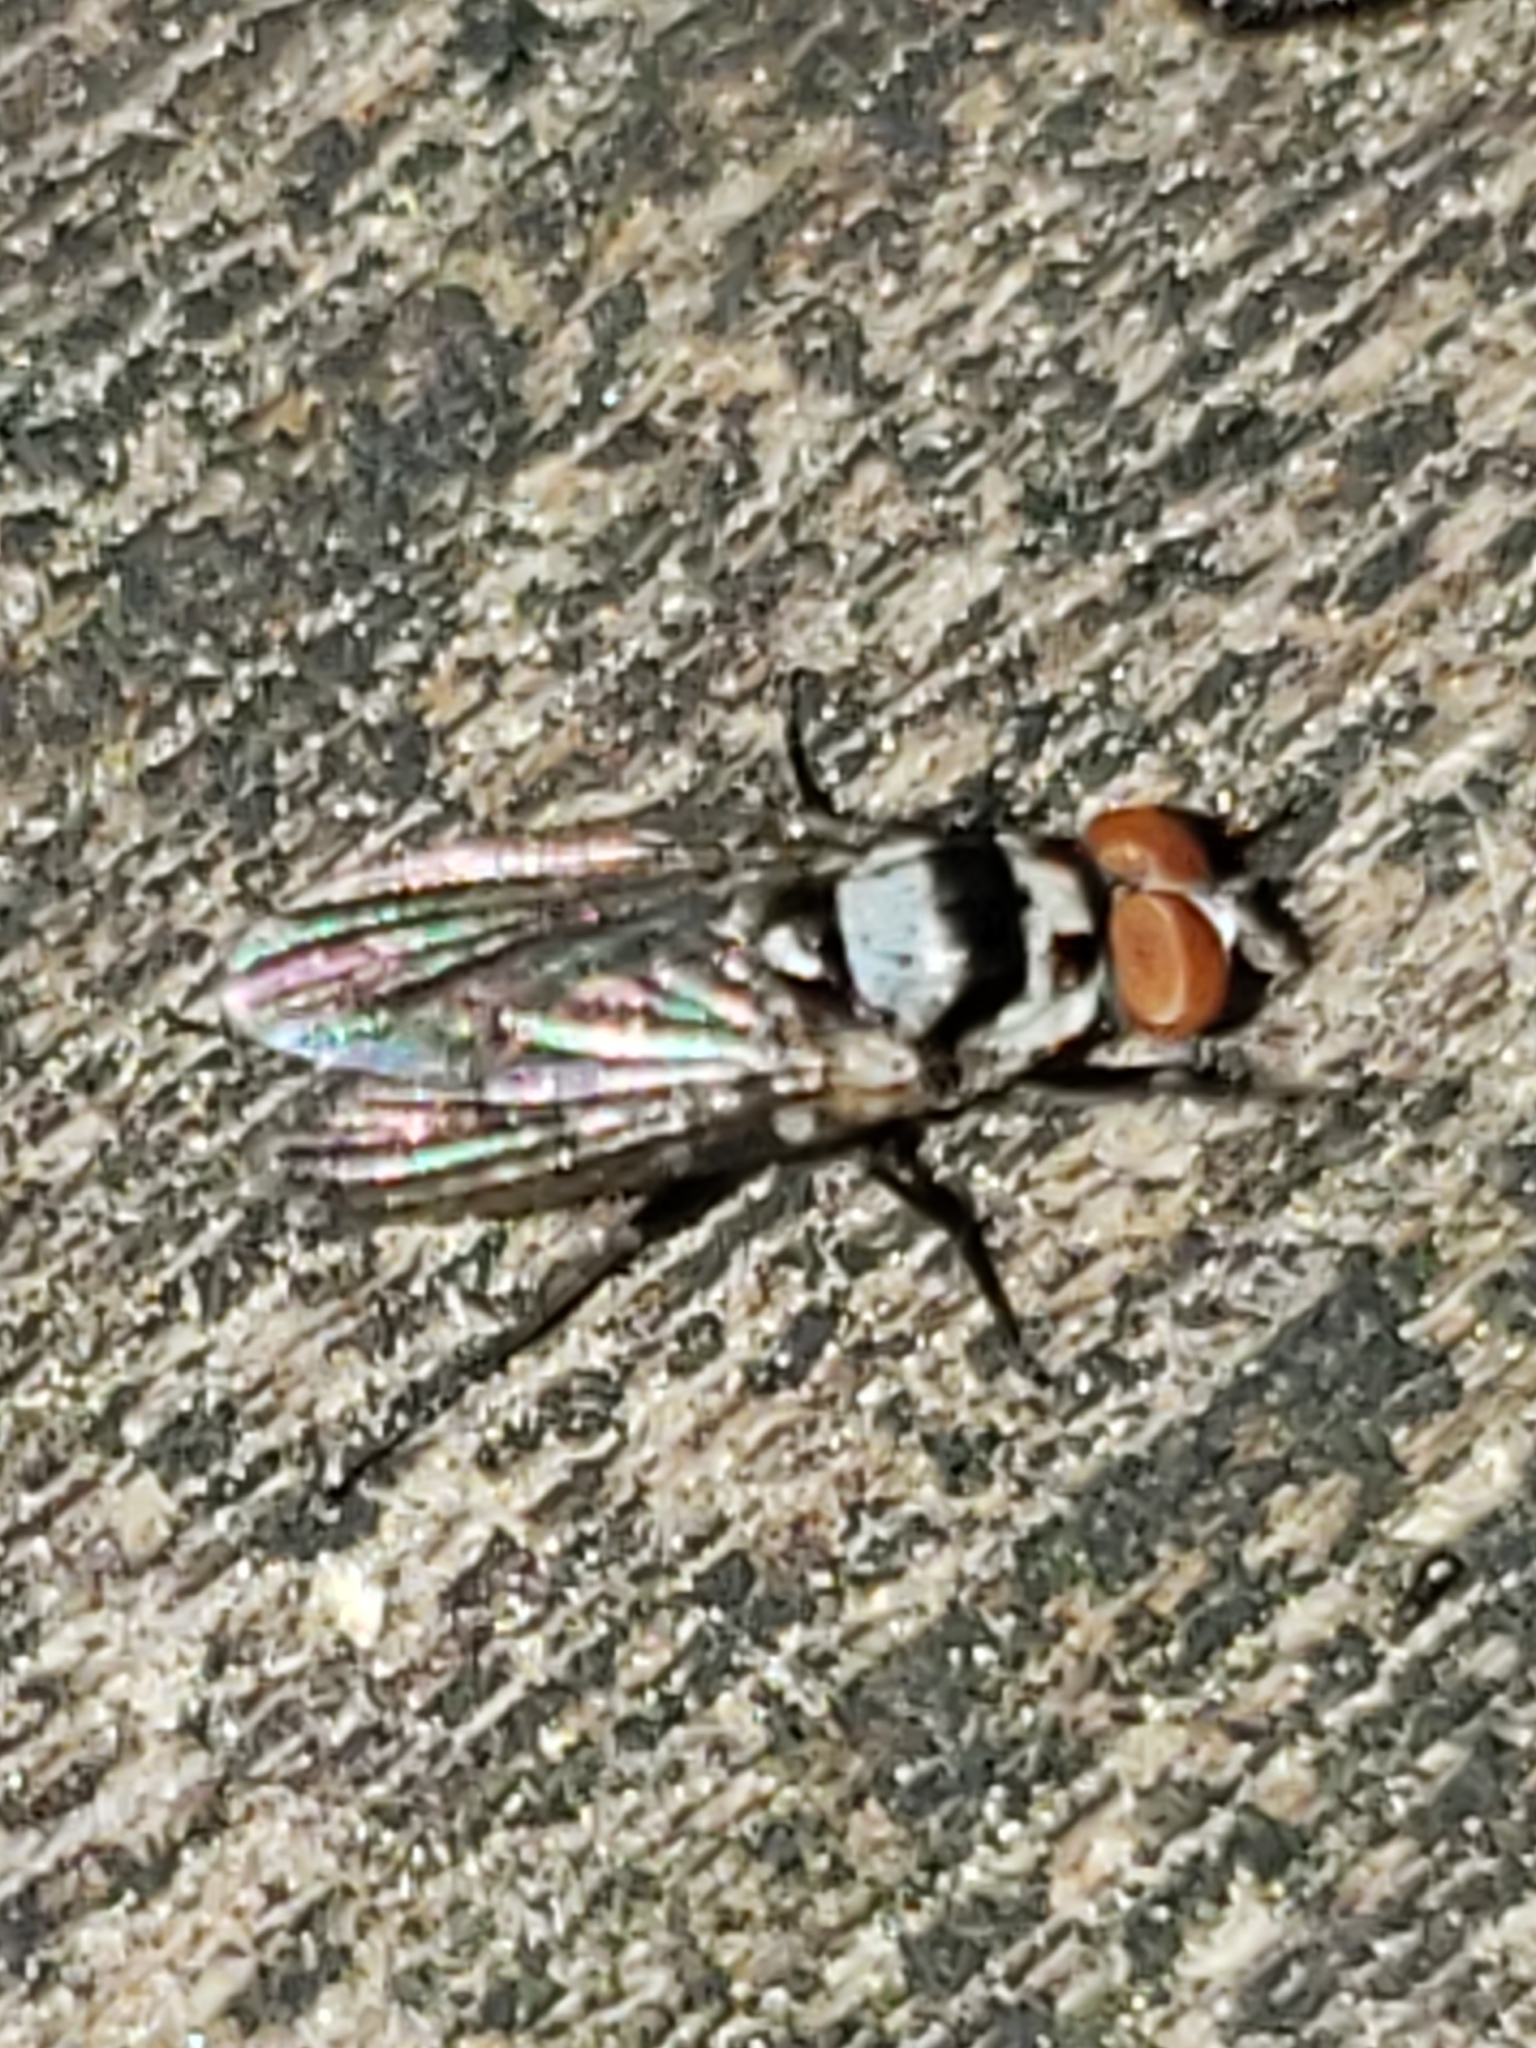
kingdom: Animalia
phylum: Arthropoda
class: Insecta
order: Diptera
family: Anthomyiidae
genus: Anthomyia
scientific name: Anthomyia oculifera
